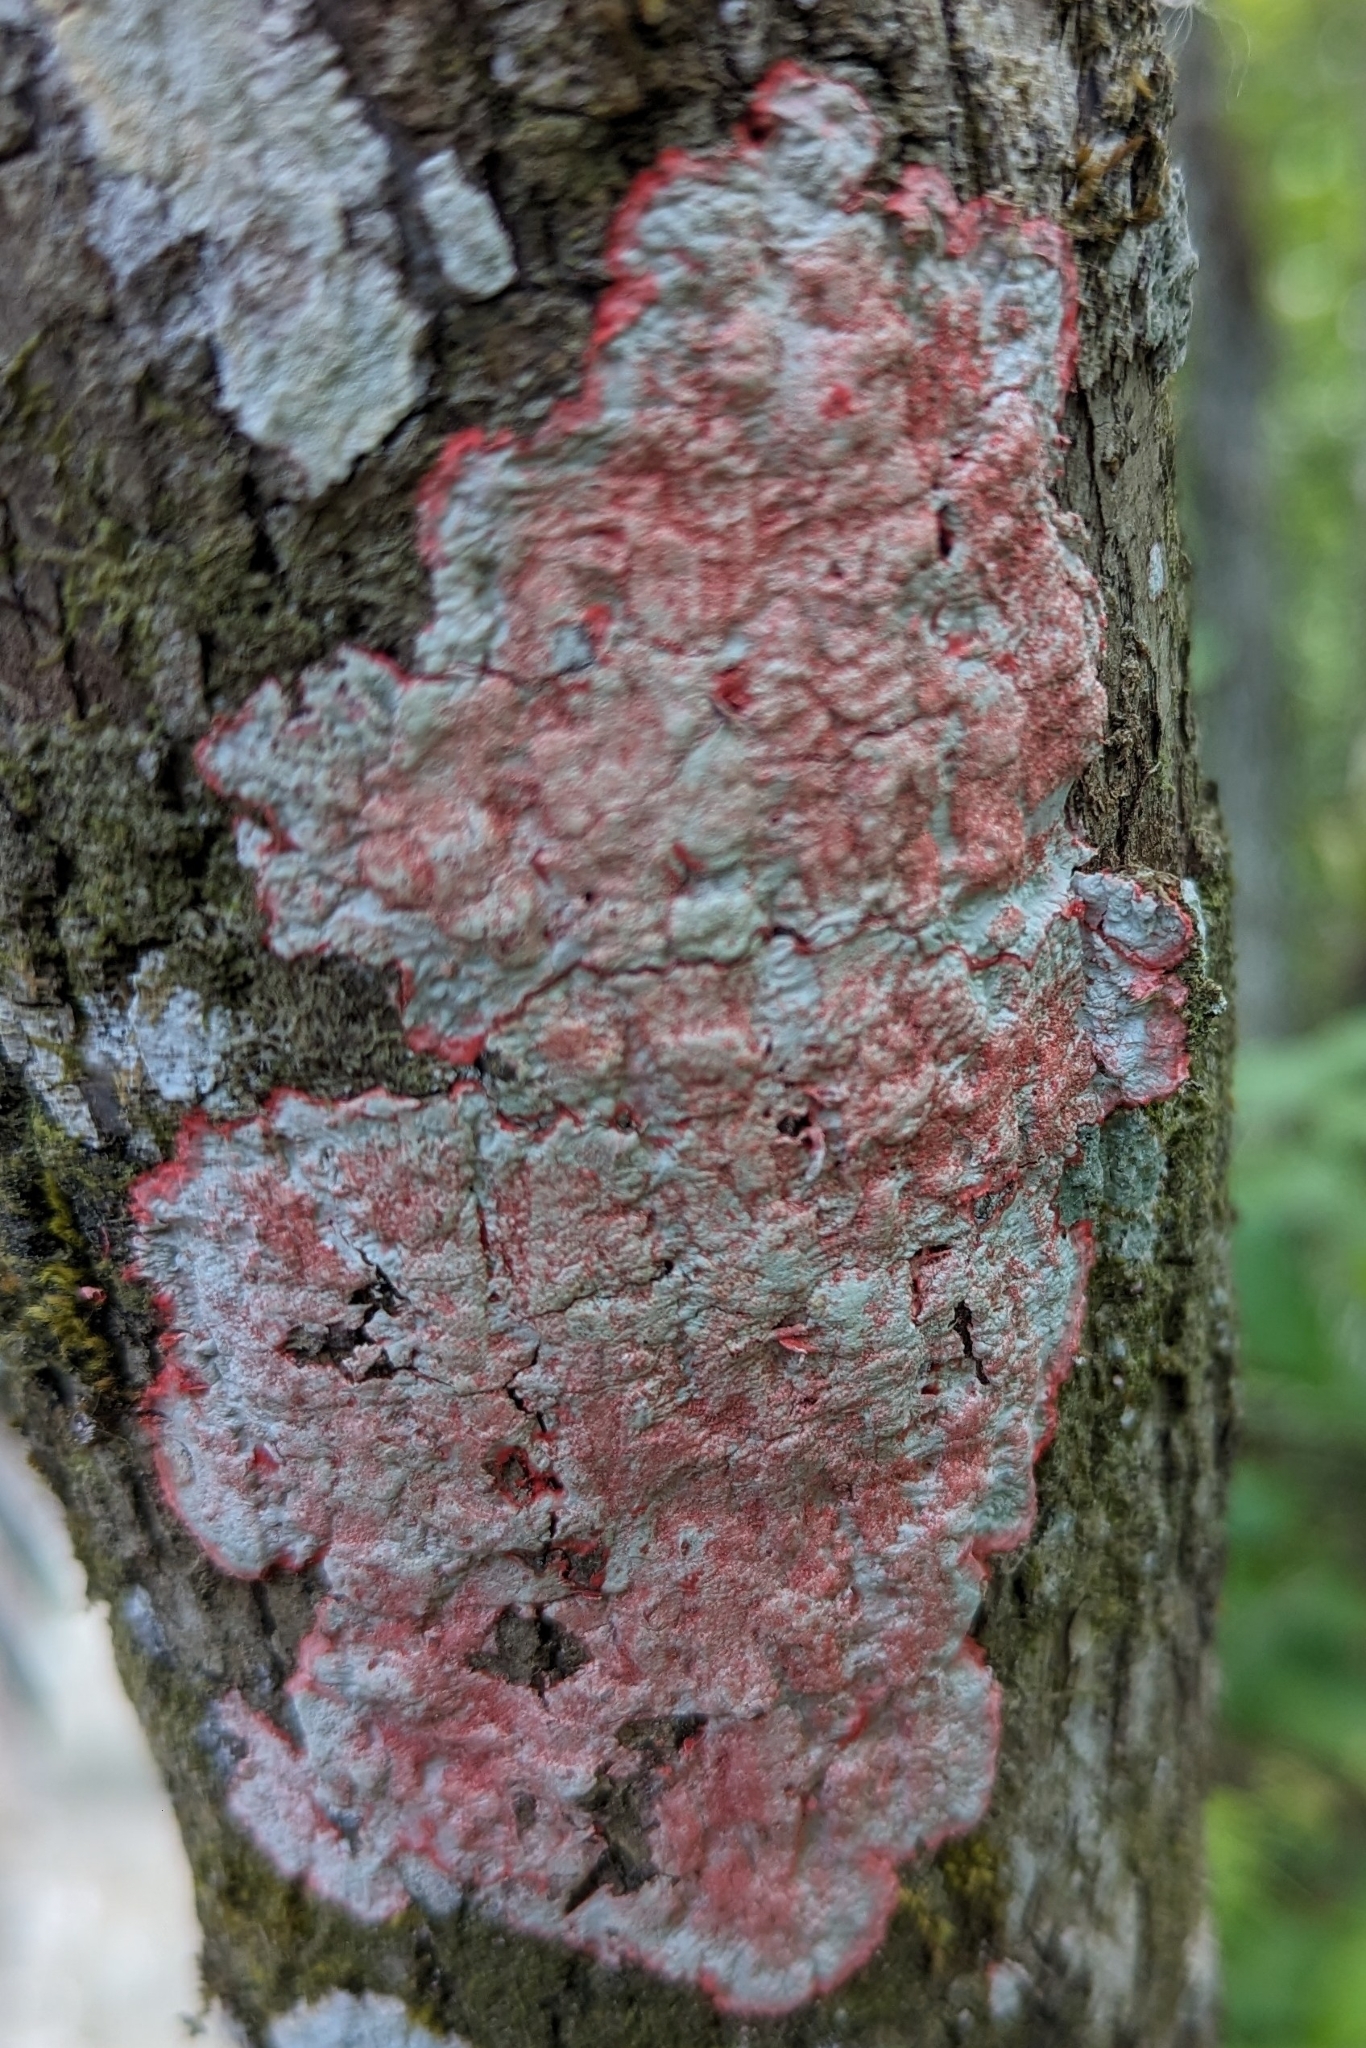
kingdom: Fungi
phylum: Ascomycota
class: Arthoniomycetes
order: Arthoniales
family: Arthoniaceae
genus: Herpothallon
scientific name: Herpothallon rubrocinctum
